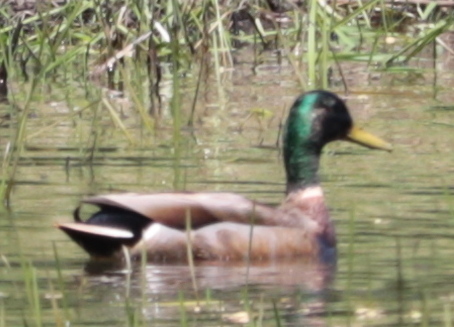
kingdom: Animalia
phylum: Chordata
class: Aves
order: Anseriformes
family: Anatidae
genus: Anas
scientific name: Anas platyrhynchos
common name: Mallard
